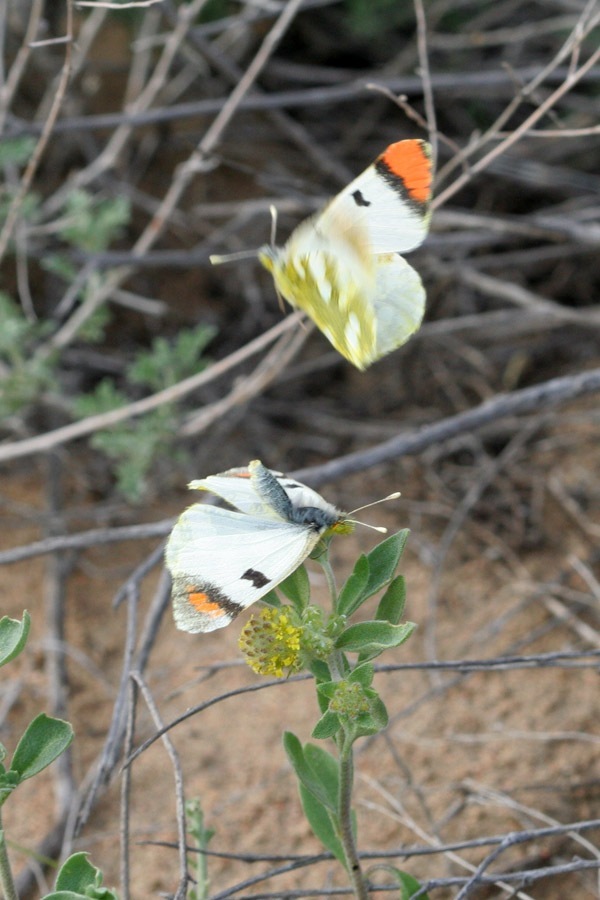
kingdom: Animalia
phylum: Arthropoda
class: Insecta
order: Lepidoptera
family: Pieridae
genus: Zegris
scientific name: Zegris fausti
